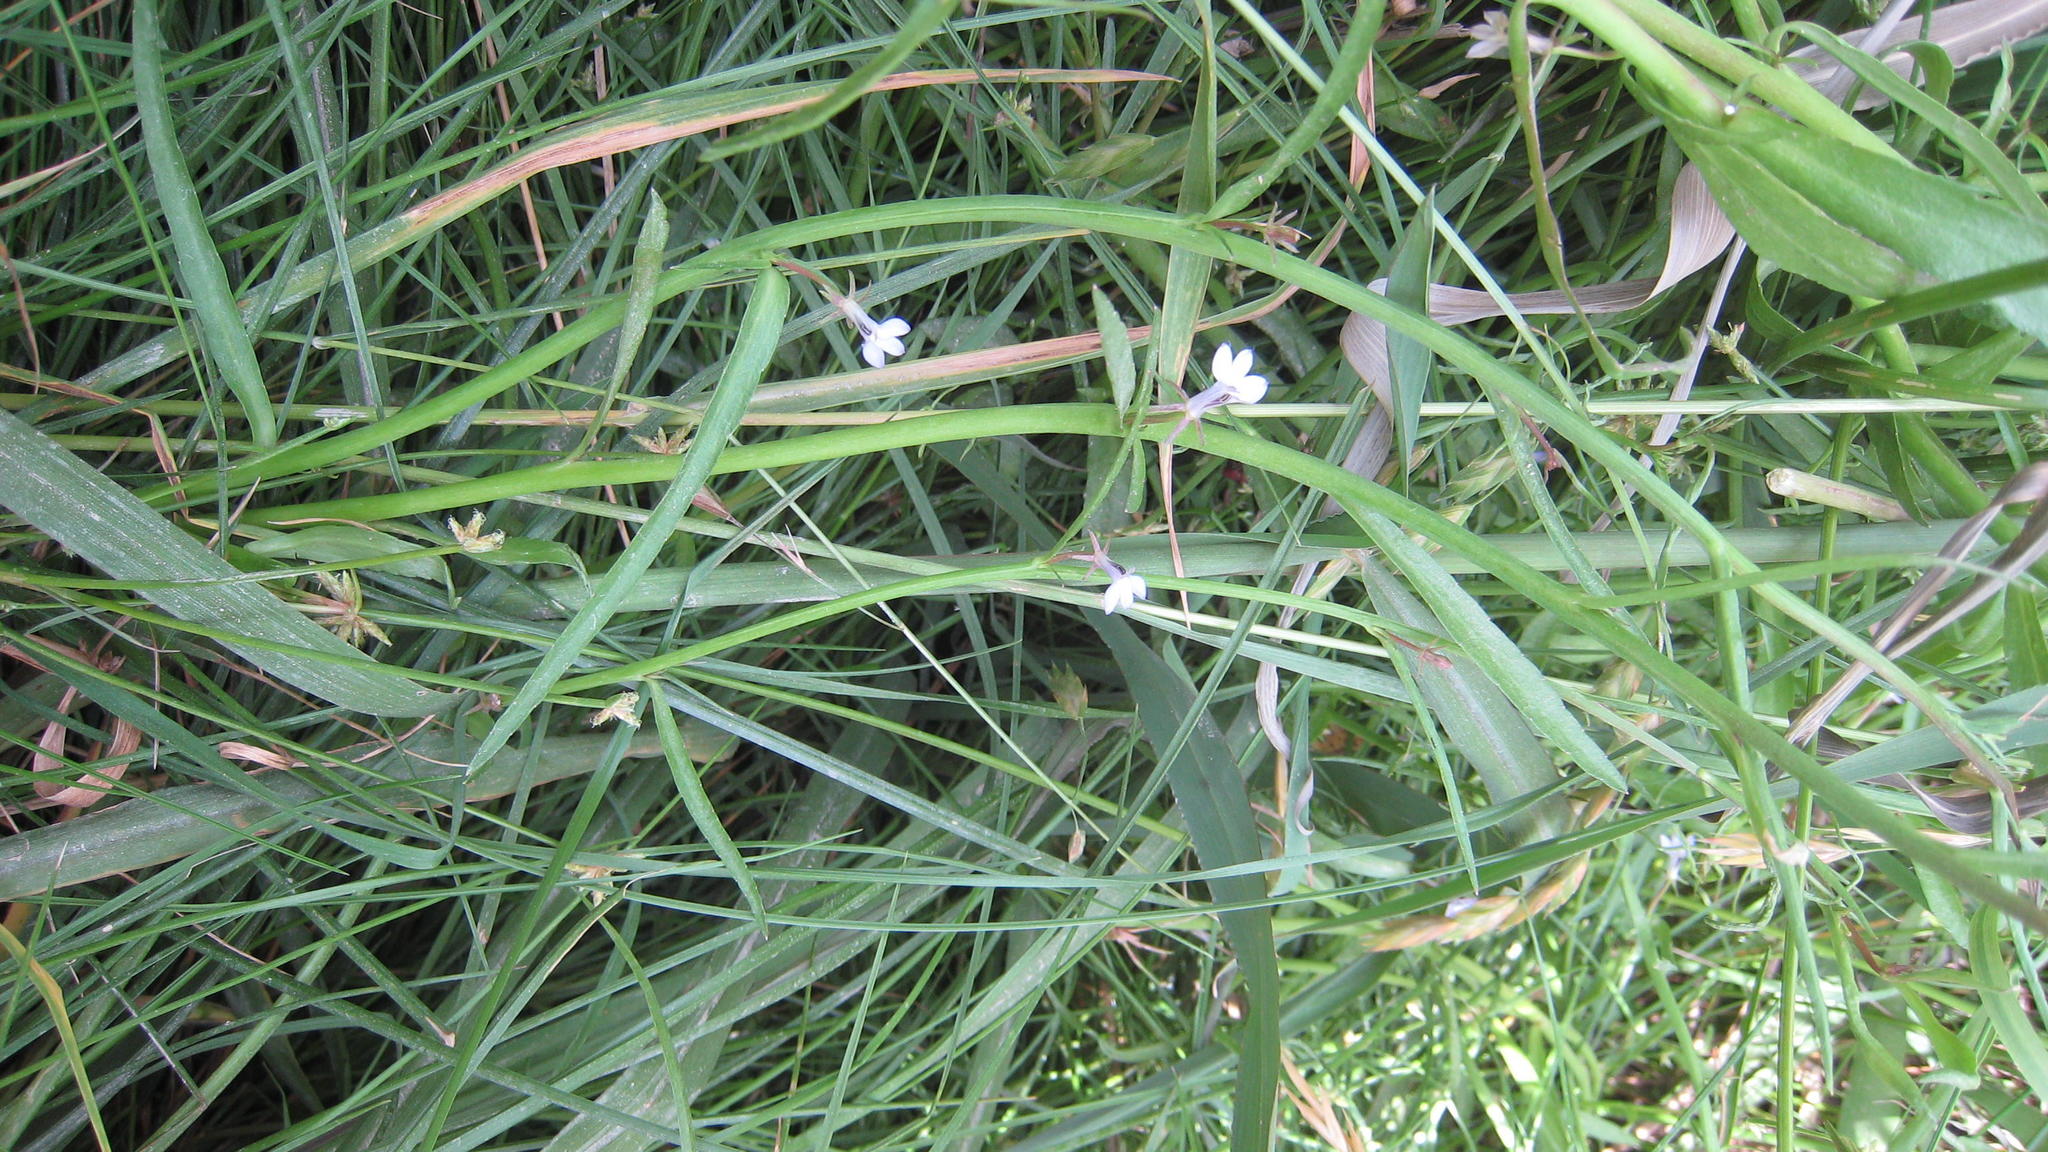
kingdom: Plantae
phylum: Tracheophyta
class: Magnoliopsida
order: Asterales
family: Campanulaceae
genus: Grammatotheca
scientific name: Grammatotheca bergiana
